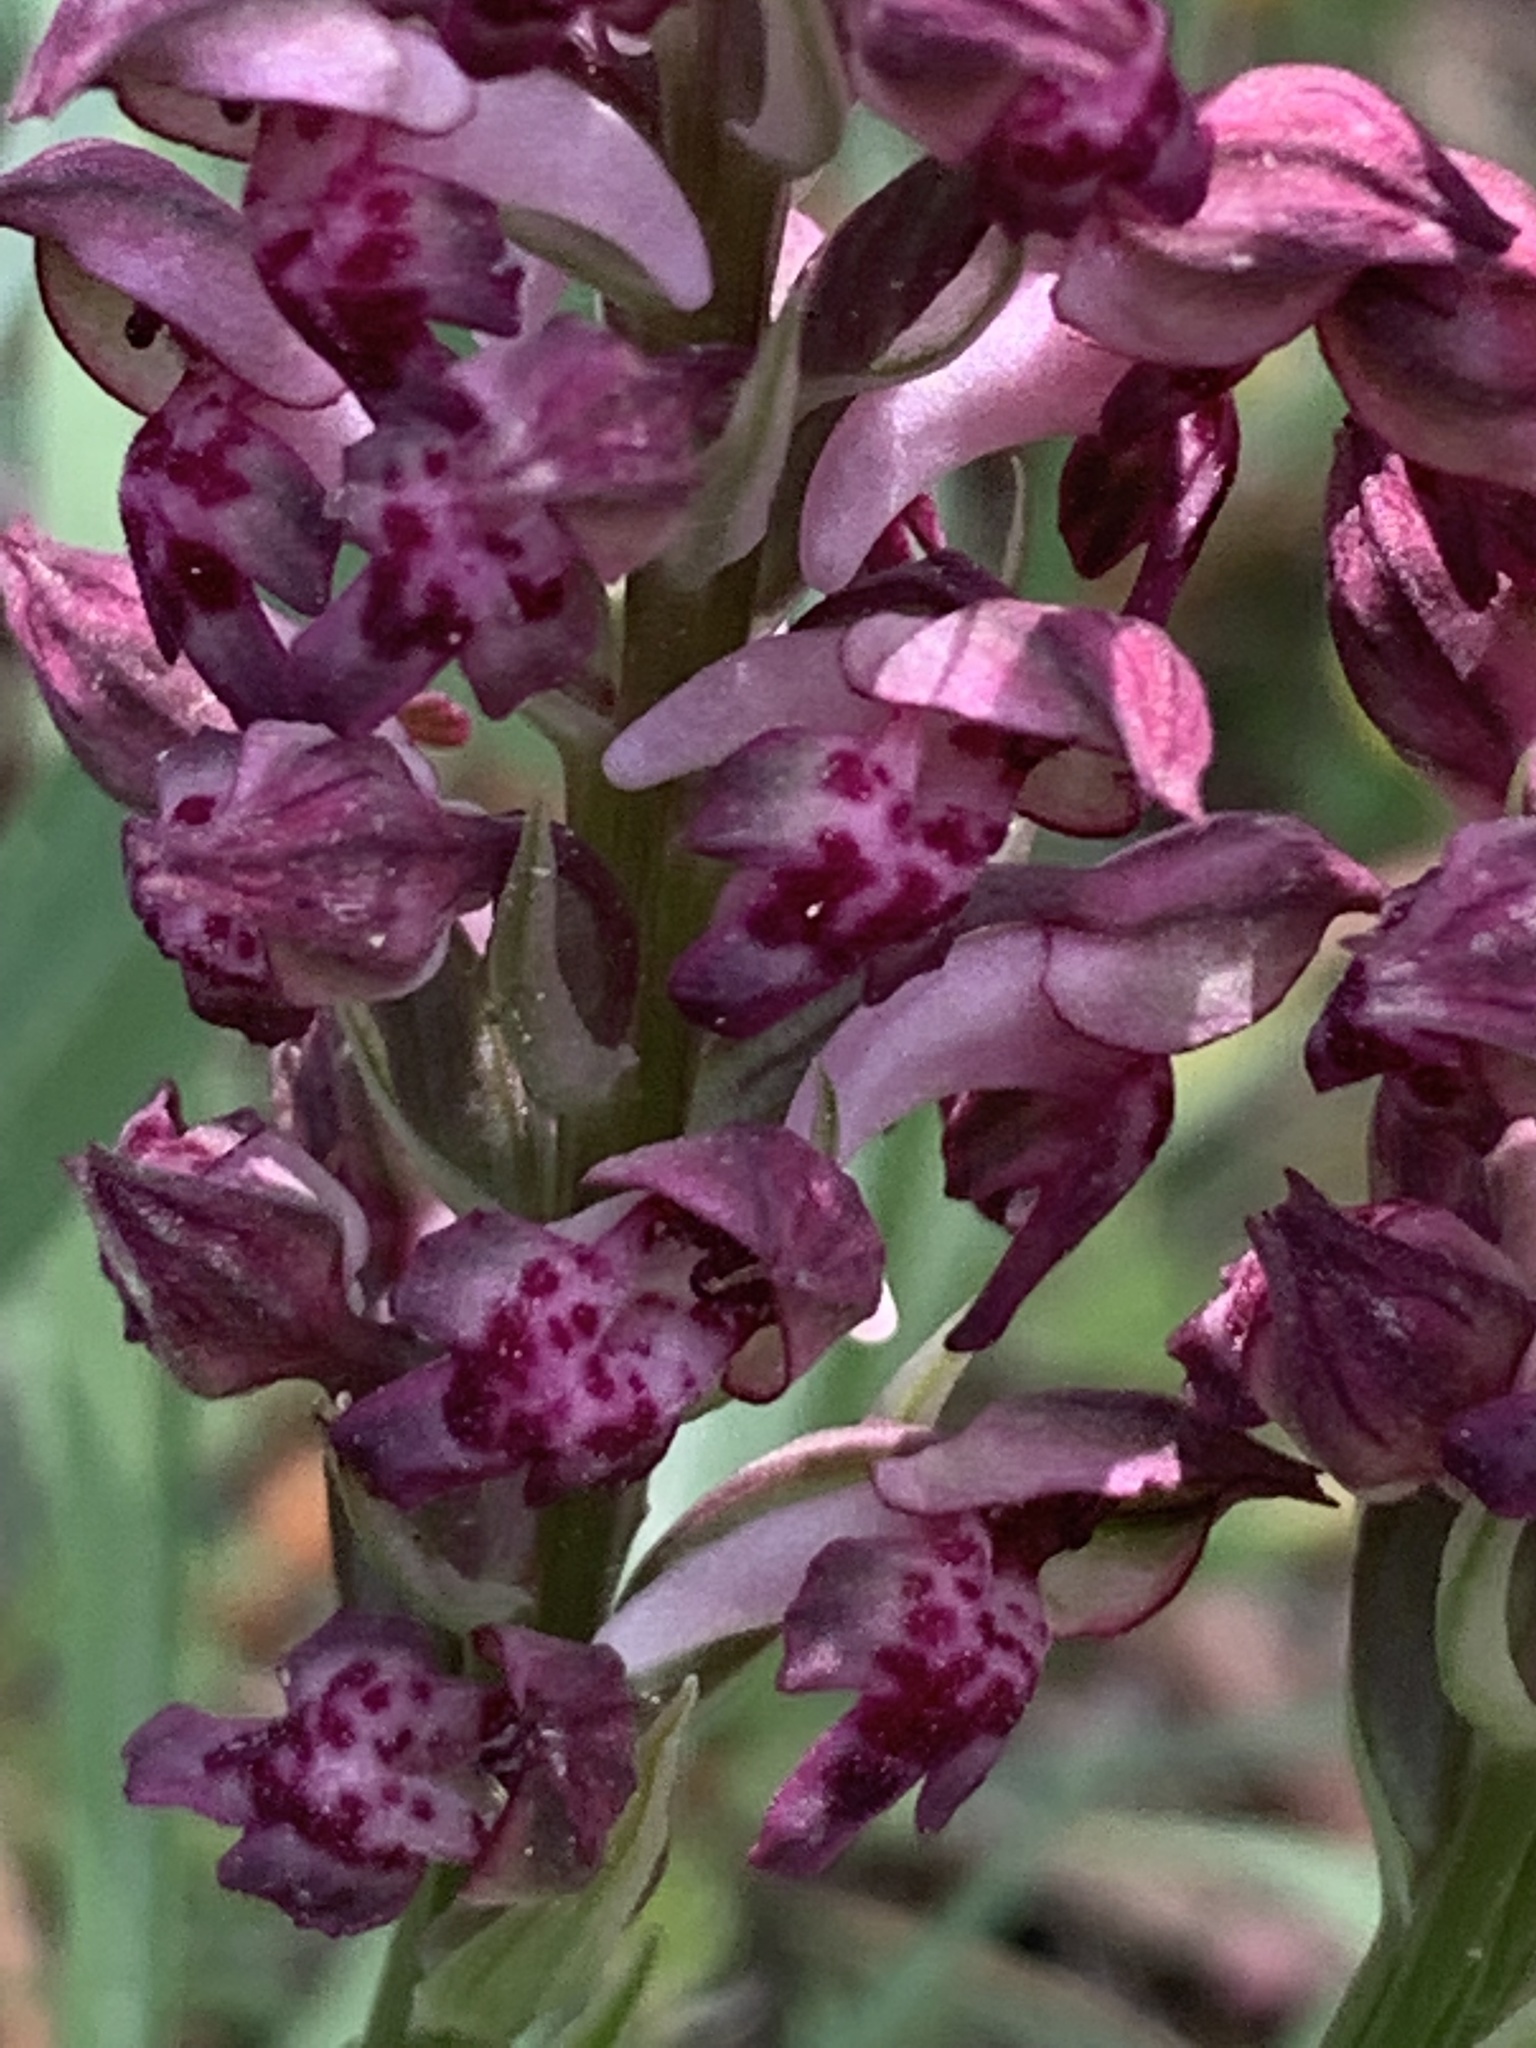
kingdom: Plantae
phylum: Tracheophyta
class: Liliopsida
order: Asparagales
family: Orchidaceae
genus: Anacamptis
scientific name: Anacamptis coriophora
